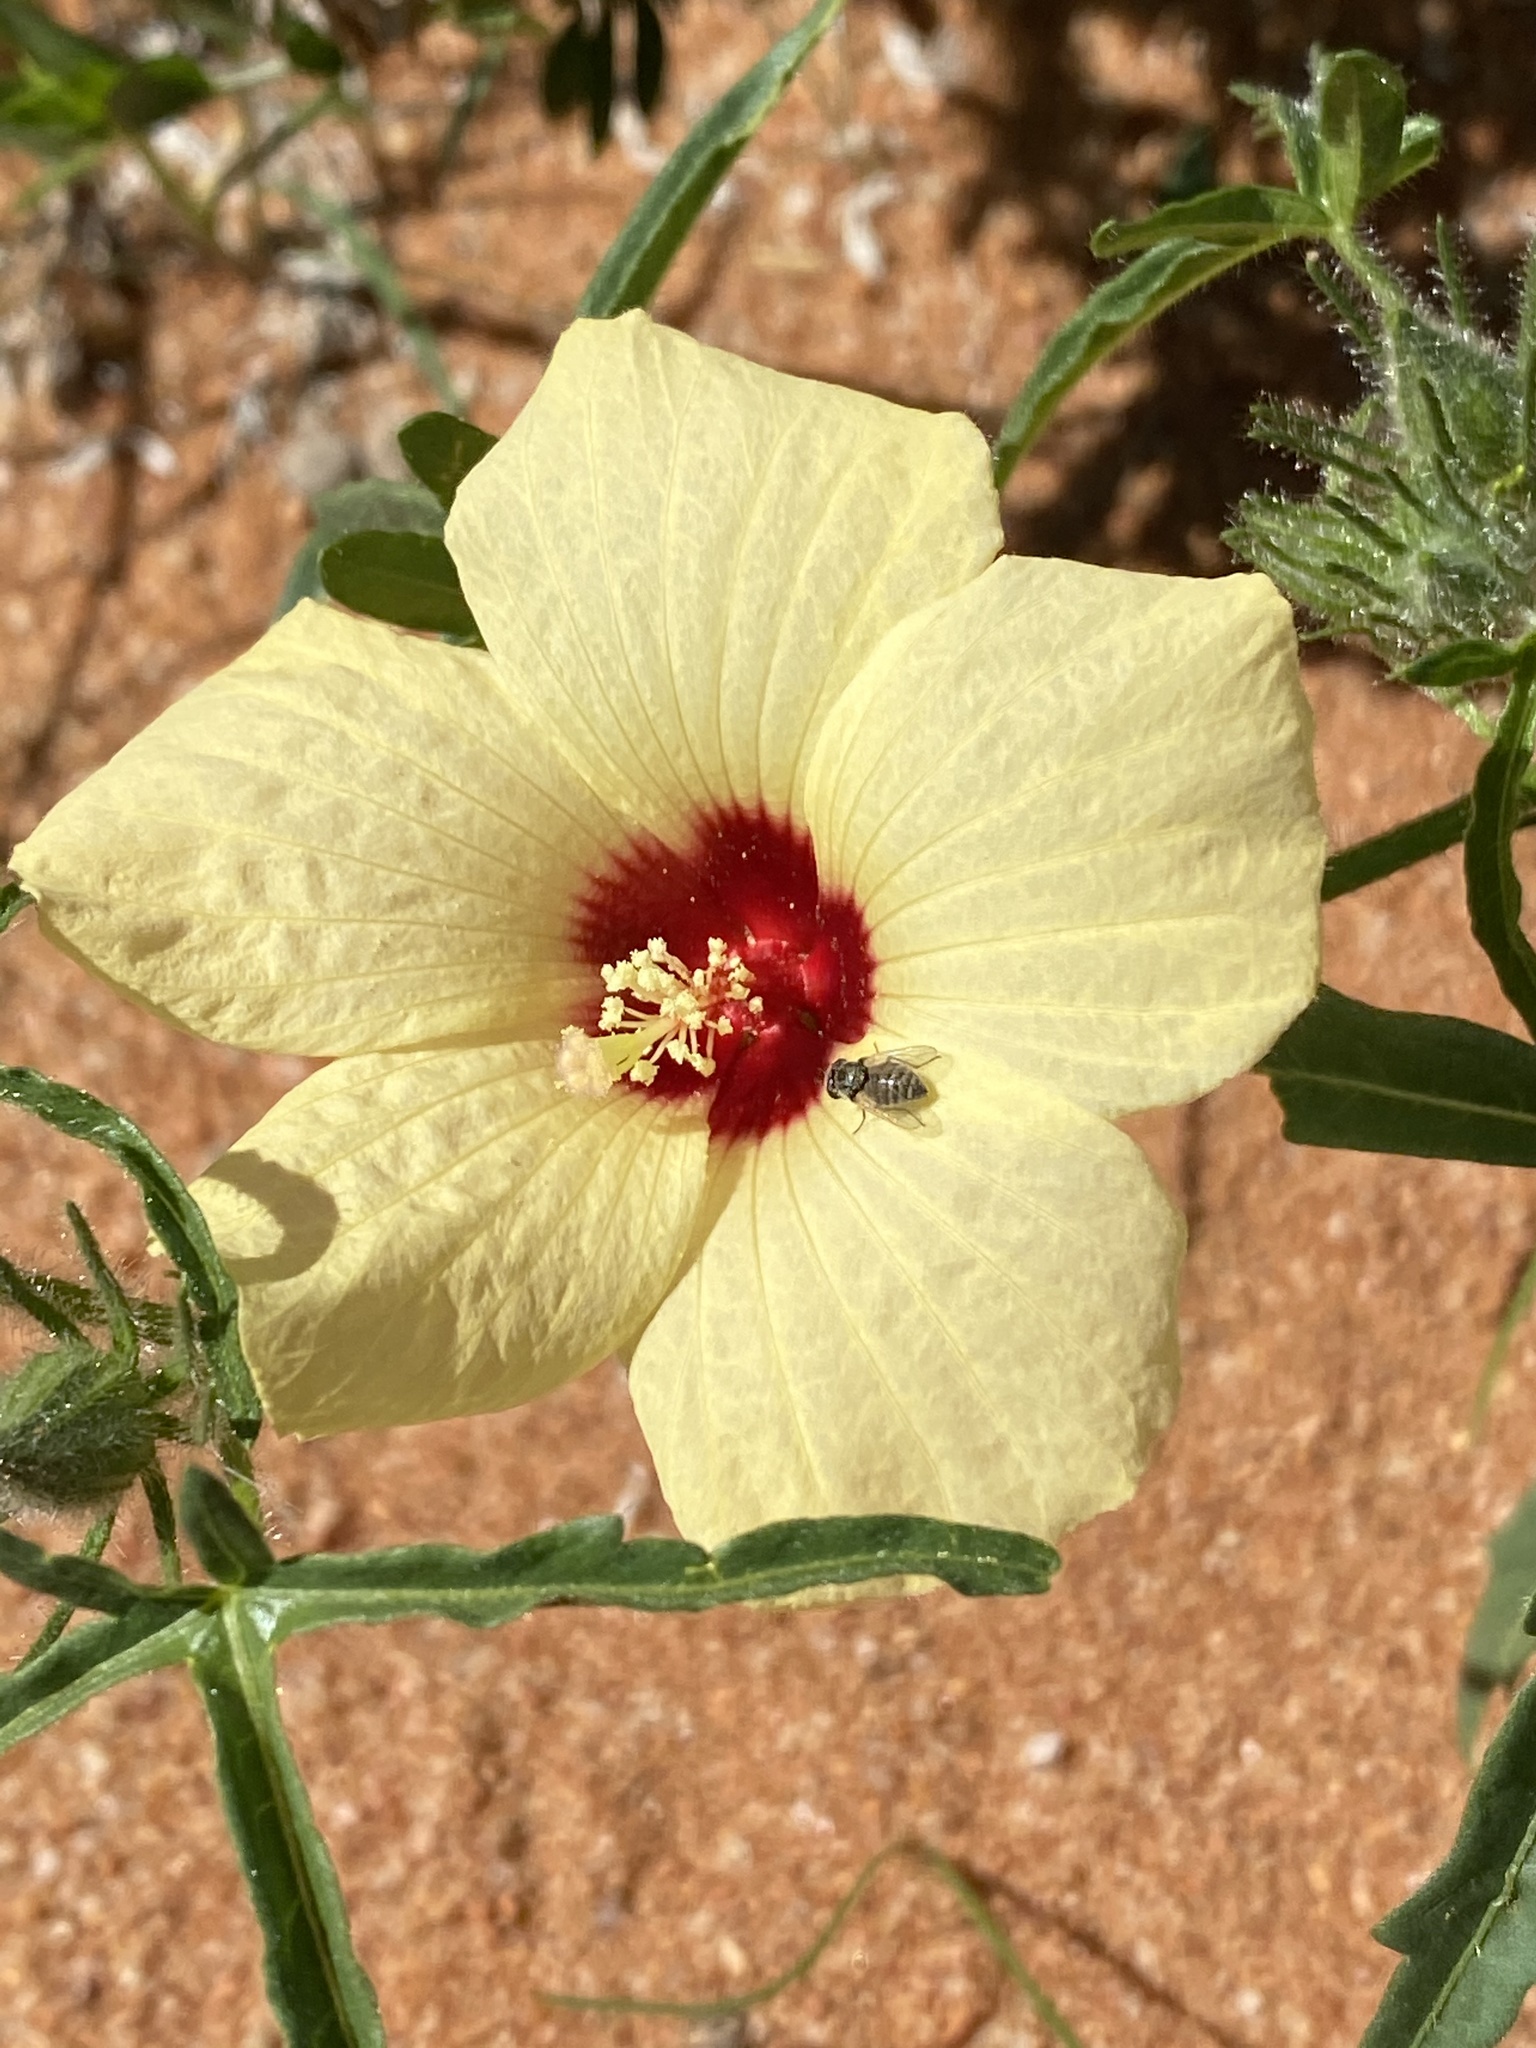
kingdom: Plantae
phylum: Tracheophyta
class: Magnoliopsida
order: Malvales
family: Malvaceae
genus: Hibiscus
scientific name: Hibiscus palmatus
